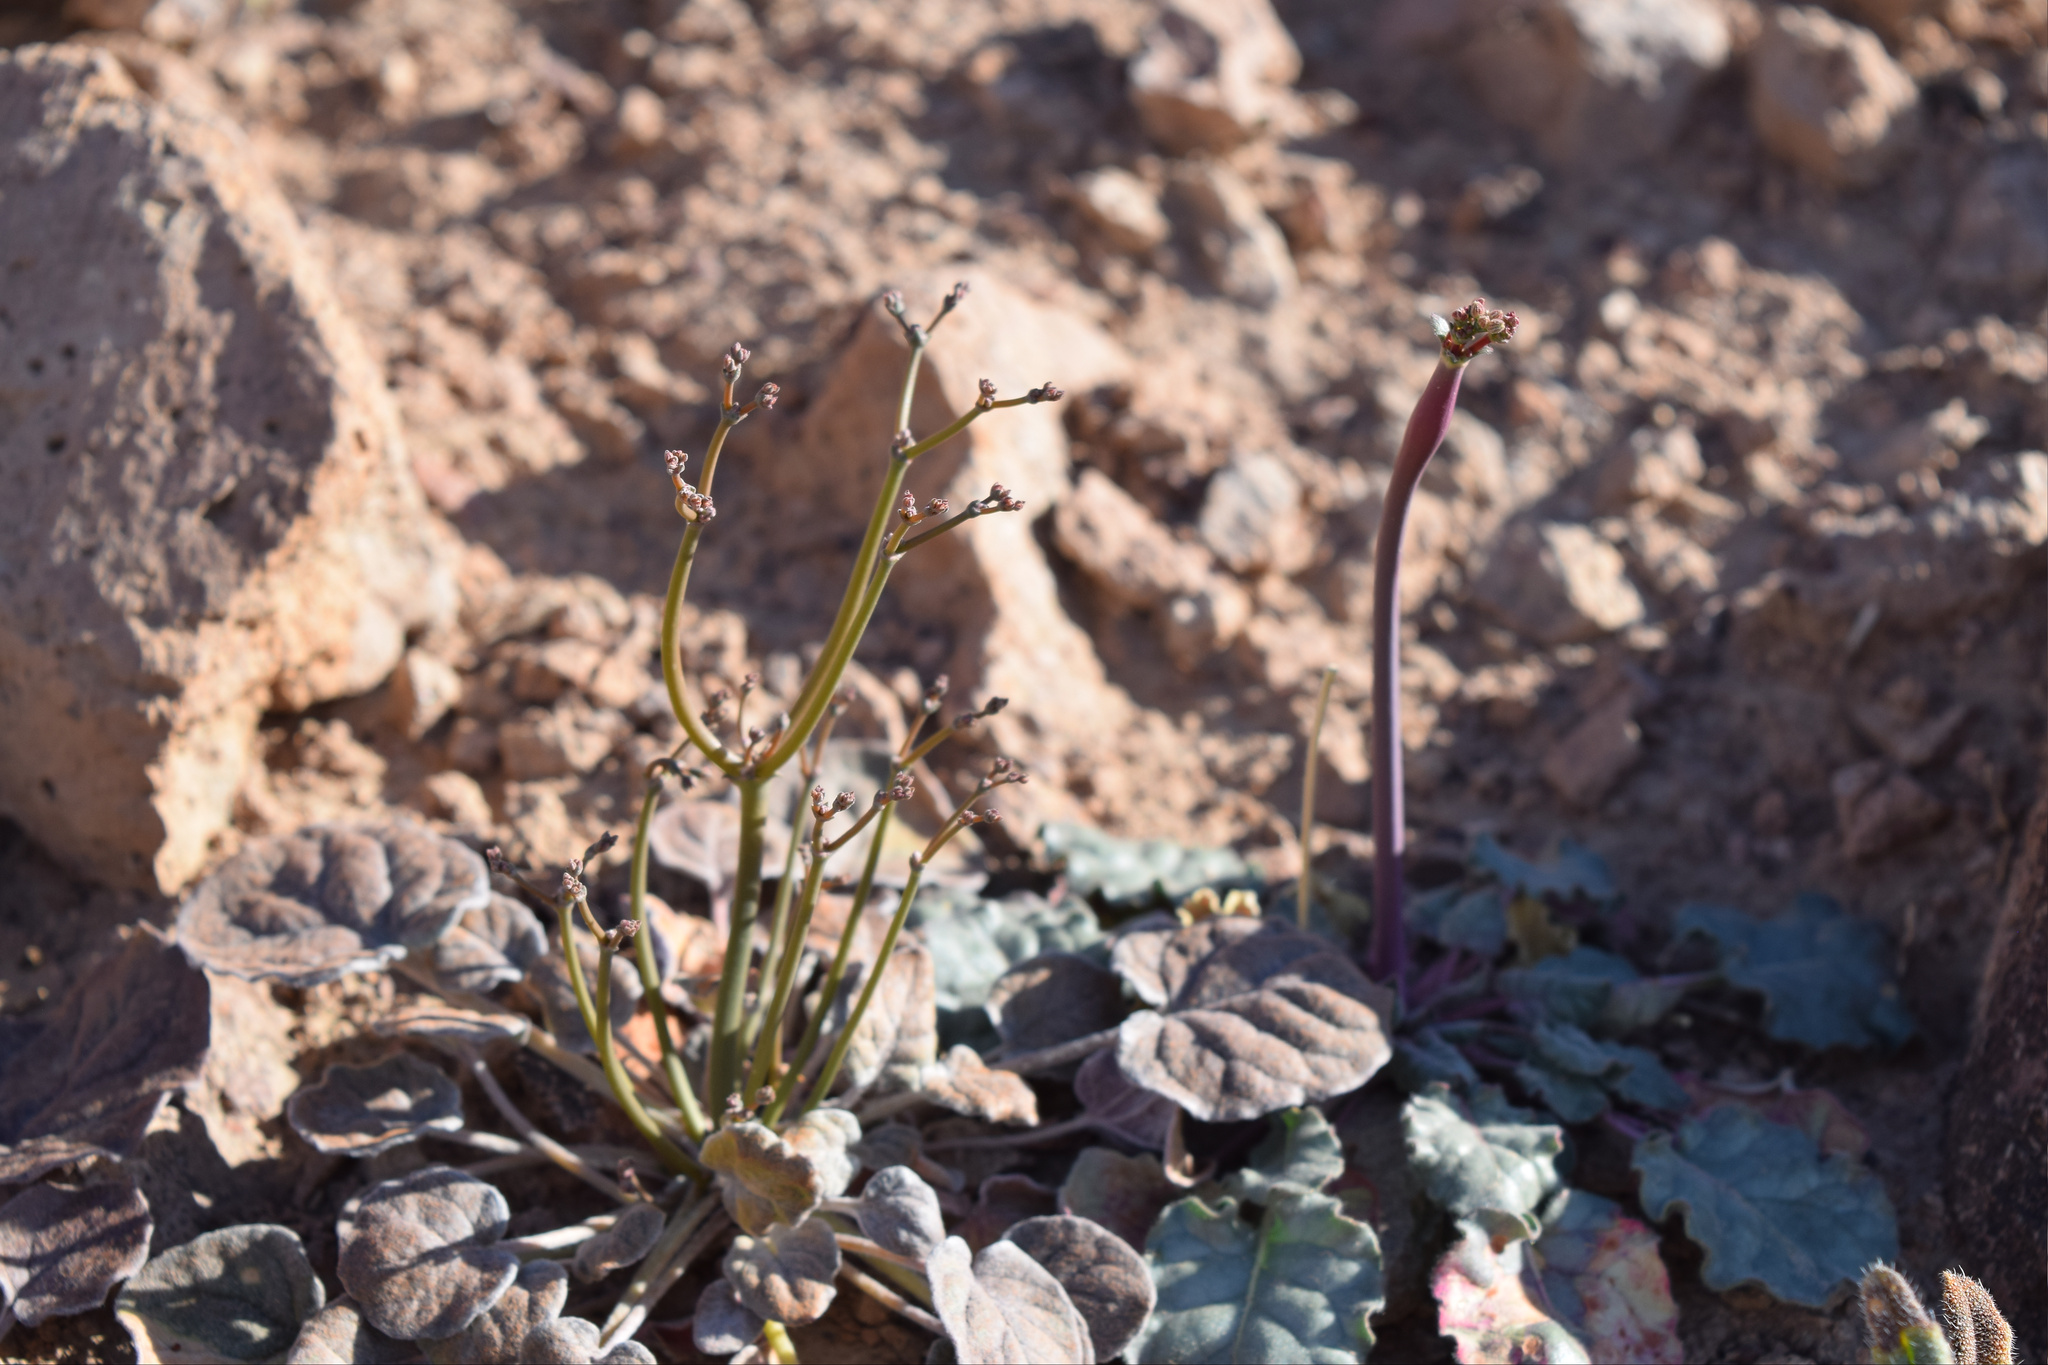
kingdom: Plantae
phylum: Tracheophyta
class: Magnoliopsida
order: Caryophyllales
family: Polygonaceae
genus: Eriogonum
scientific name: Eriogonum inflatum
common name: Desert trumpet
